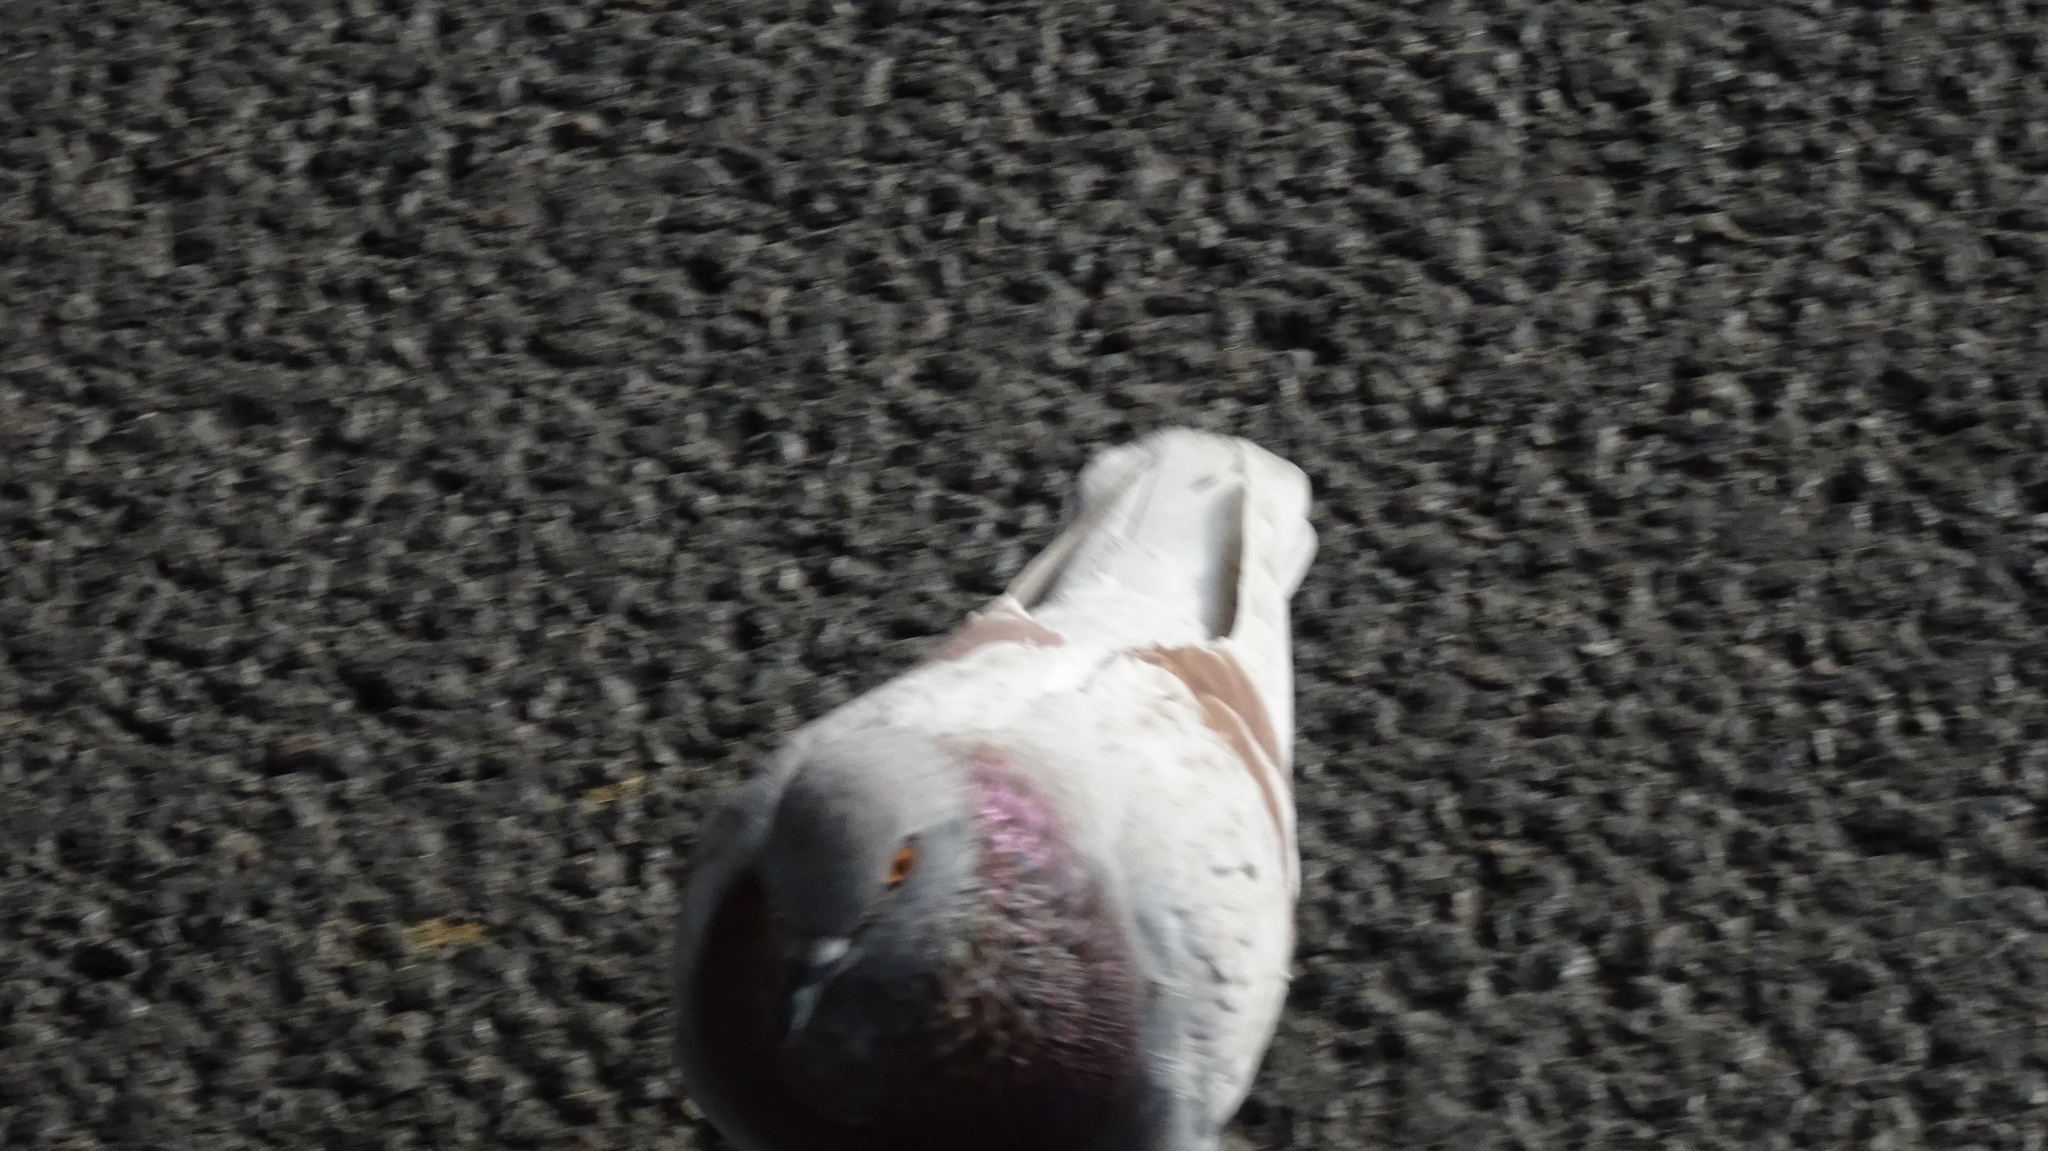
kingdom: Animalia
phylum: Chordata
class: Aves
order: Columbiformes
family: Columbidae
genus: Columba
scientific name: Columba livia
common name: Rock pigeon
